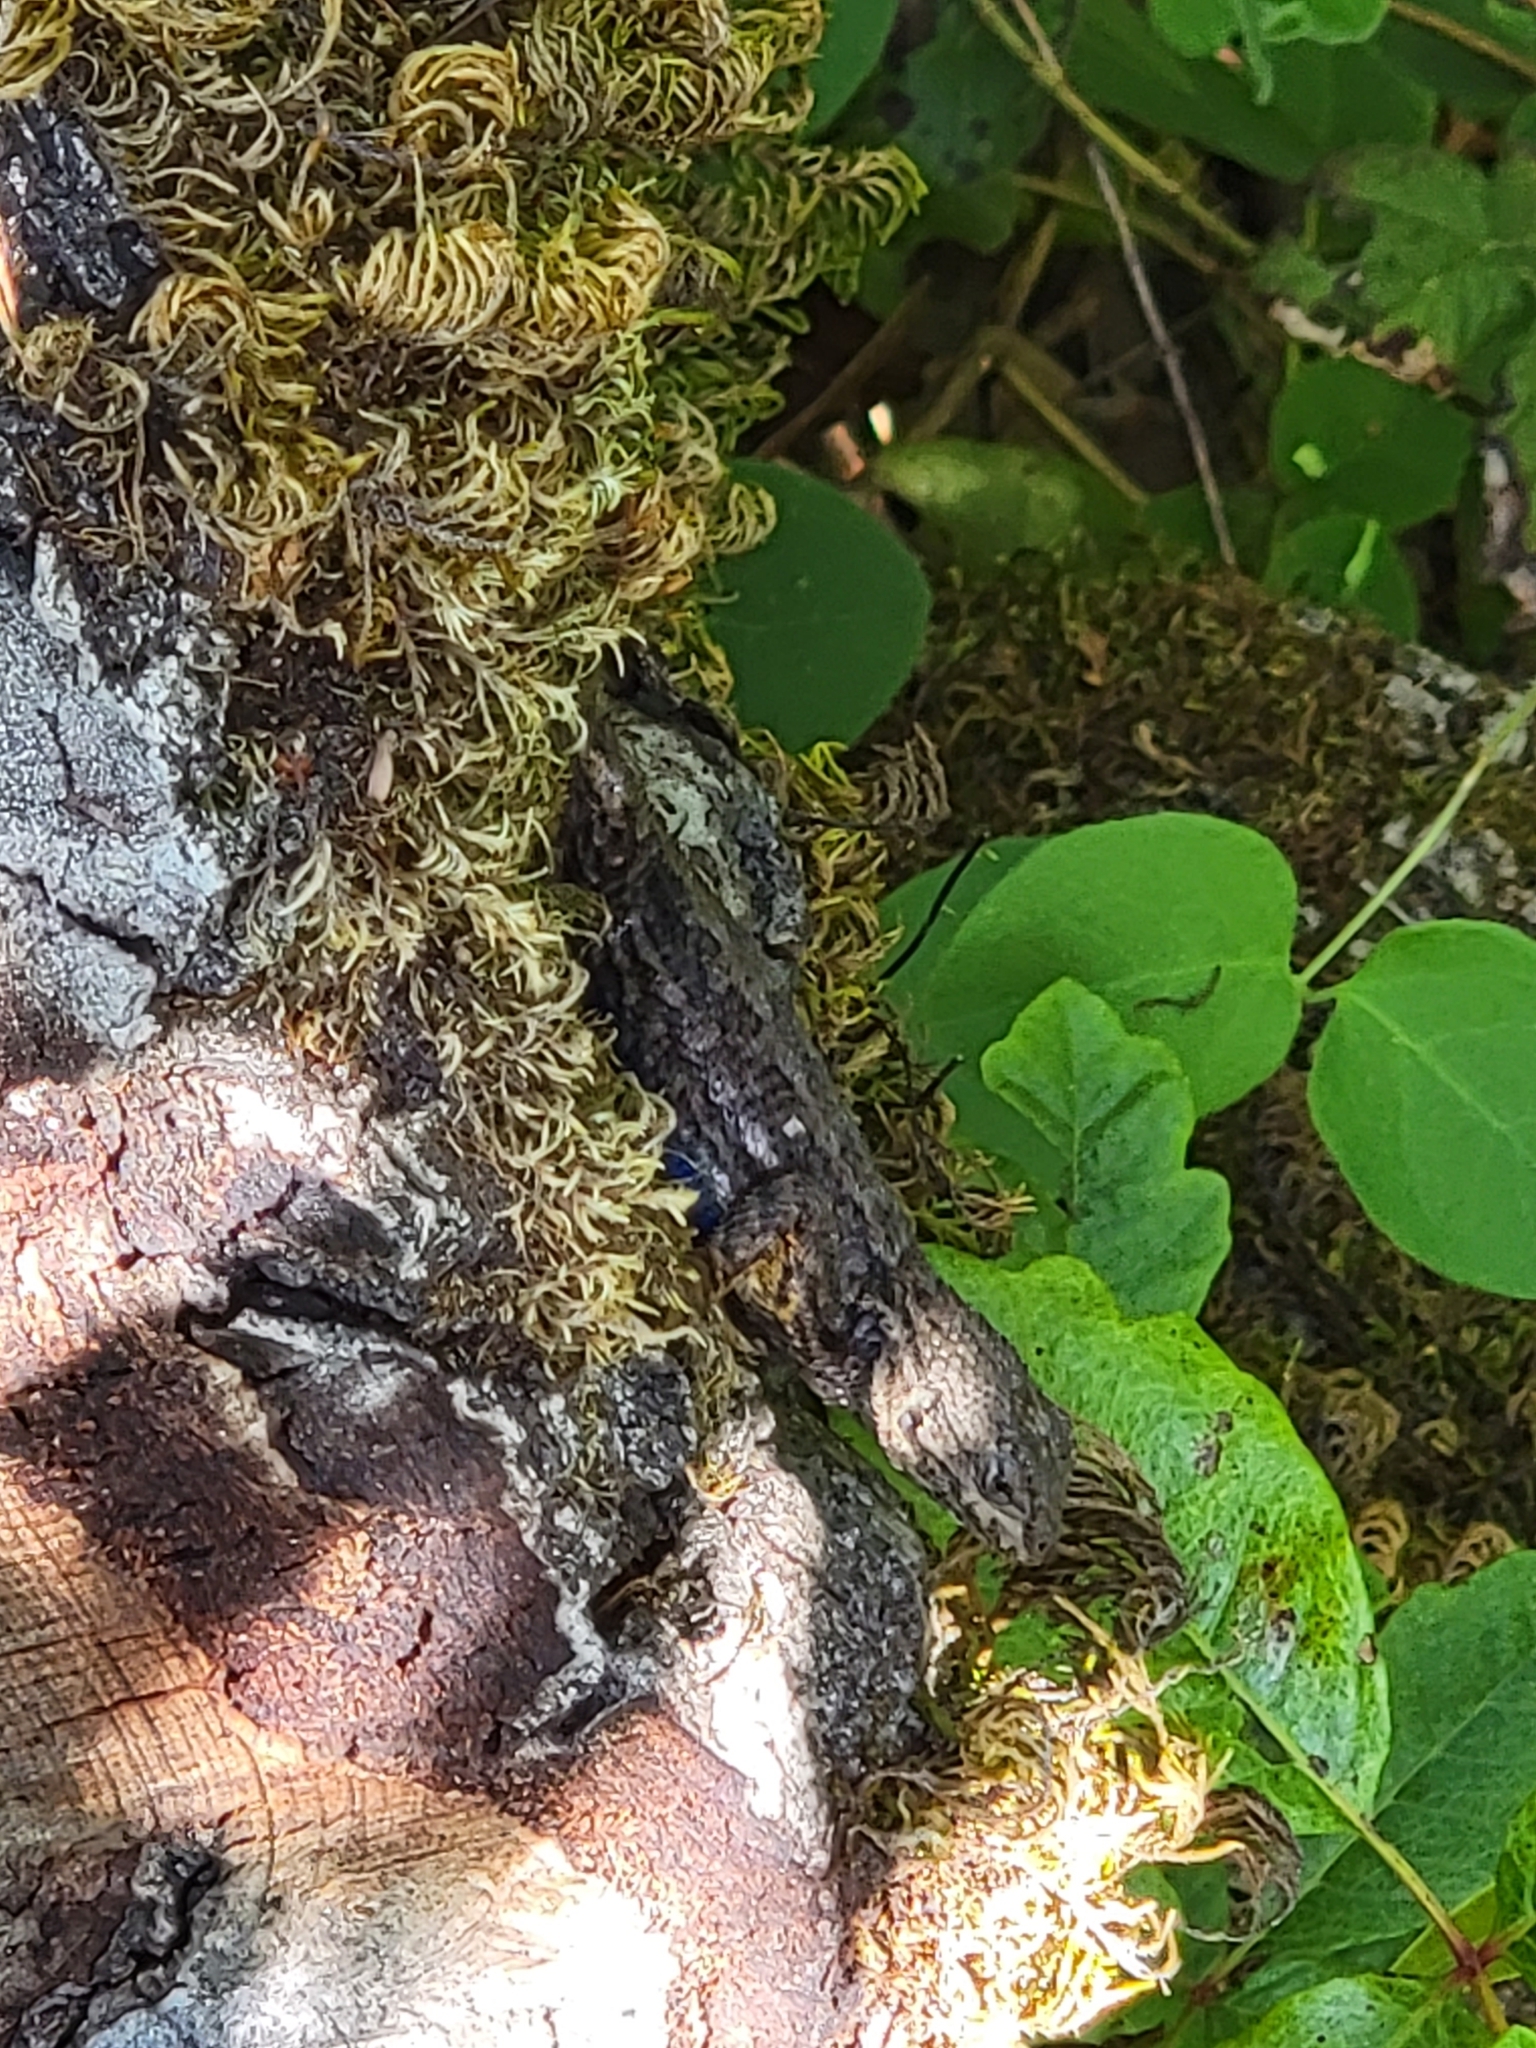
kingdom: Animalia
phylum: Chordata
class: Squamata
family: Phrynosomatidae
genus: Sceloporus
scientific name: Sceloporus occidentalis
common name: Western fence lizard
